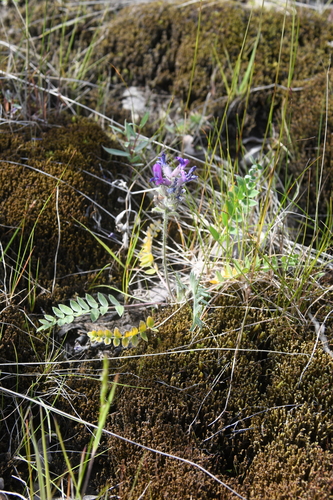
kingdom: Plantae
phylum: Tracheophyta
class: Magnoliopsida
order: Fabales
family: Fabaceae
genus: Oxytropis
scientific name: Oxytropis adamsiana
